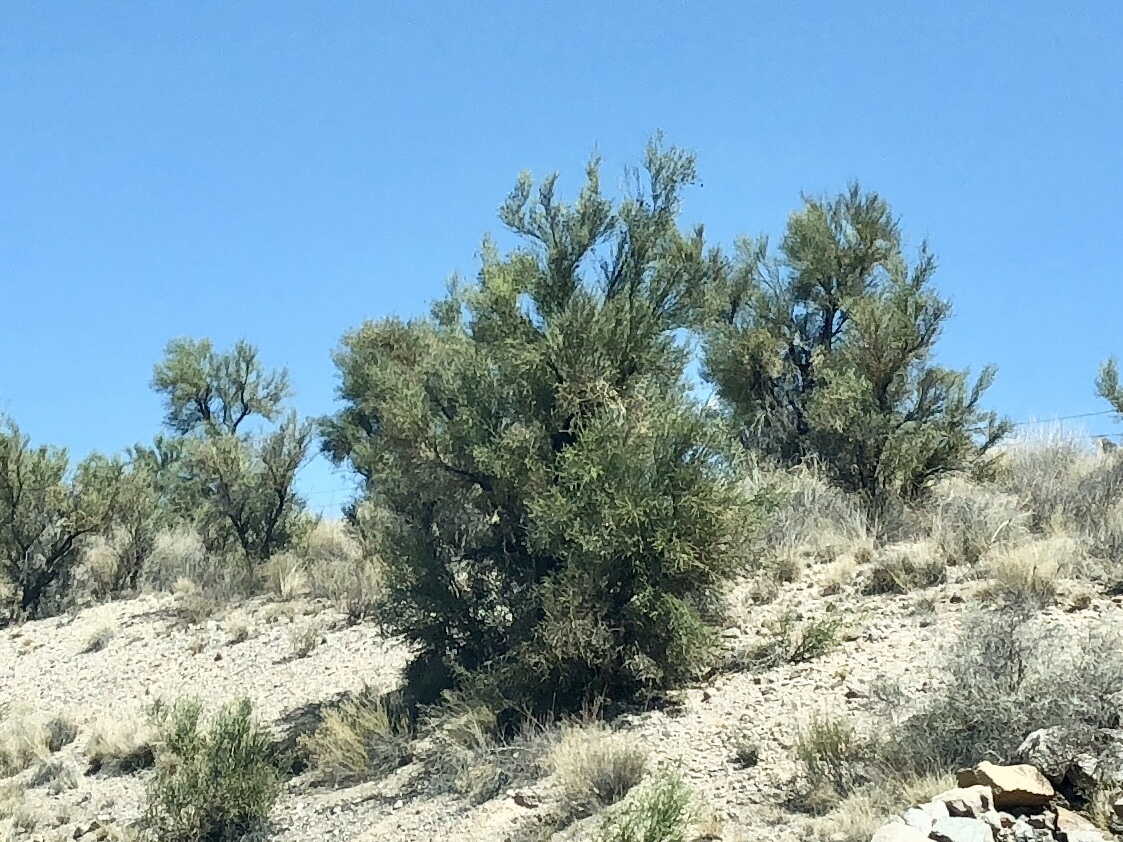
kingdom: Plantae
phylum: Tracheophyta
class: Magnoliopsida
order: Celastrales
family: Celastraceae
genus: Canotia
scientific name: Canotia holacantha
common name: Crucifixion thorns
